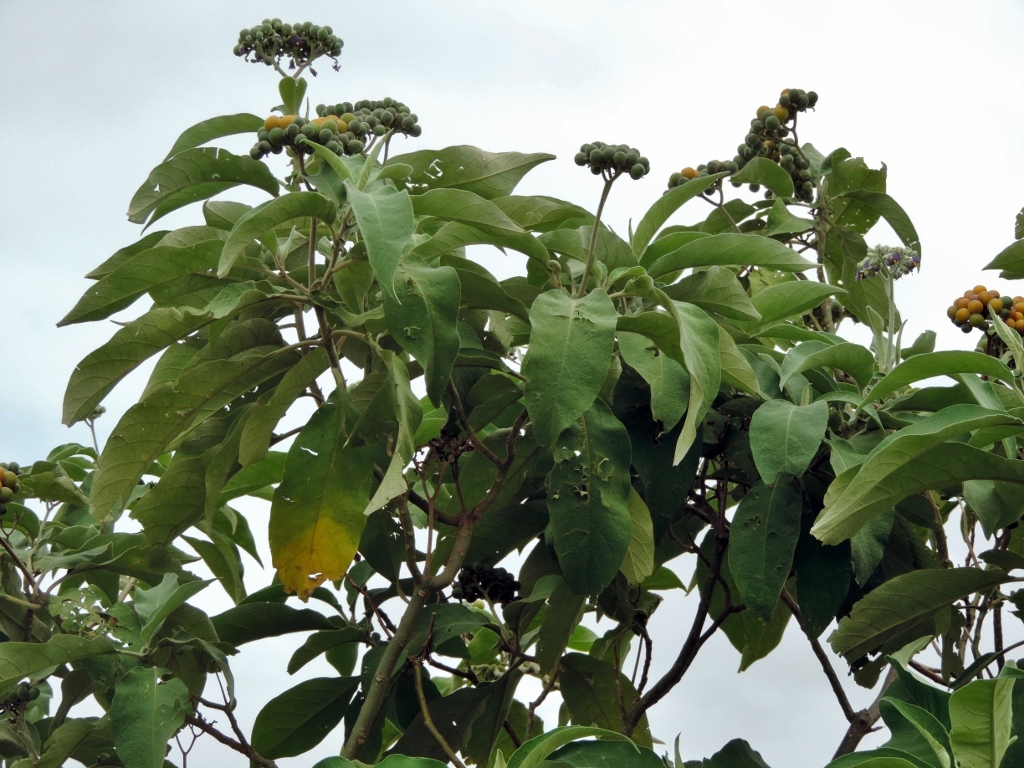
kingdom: Plantae
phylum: Tracheophyta
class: Magnoliopsida
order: Solanales
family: Solanaceae
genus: Solanum
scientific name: Solanum mauritianum
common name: Earleaf nightshade
